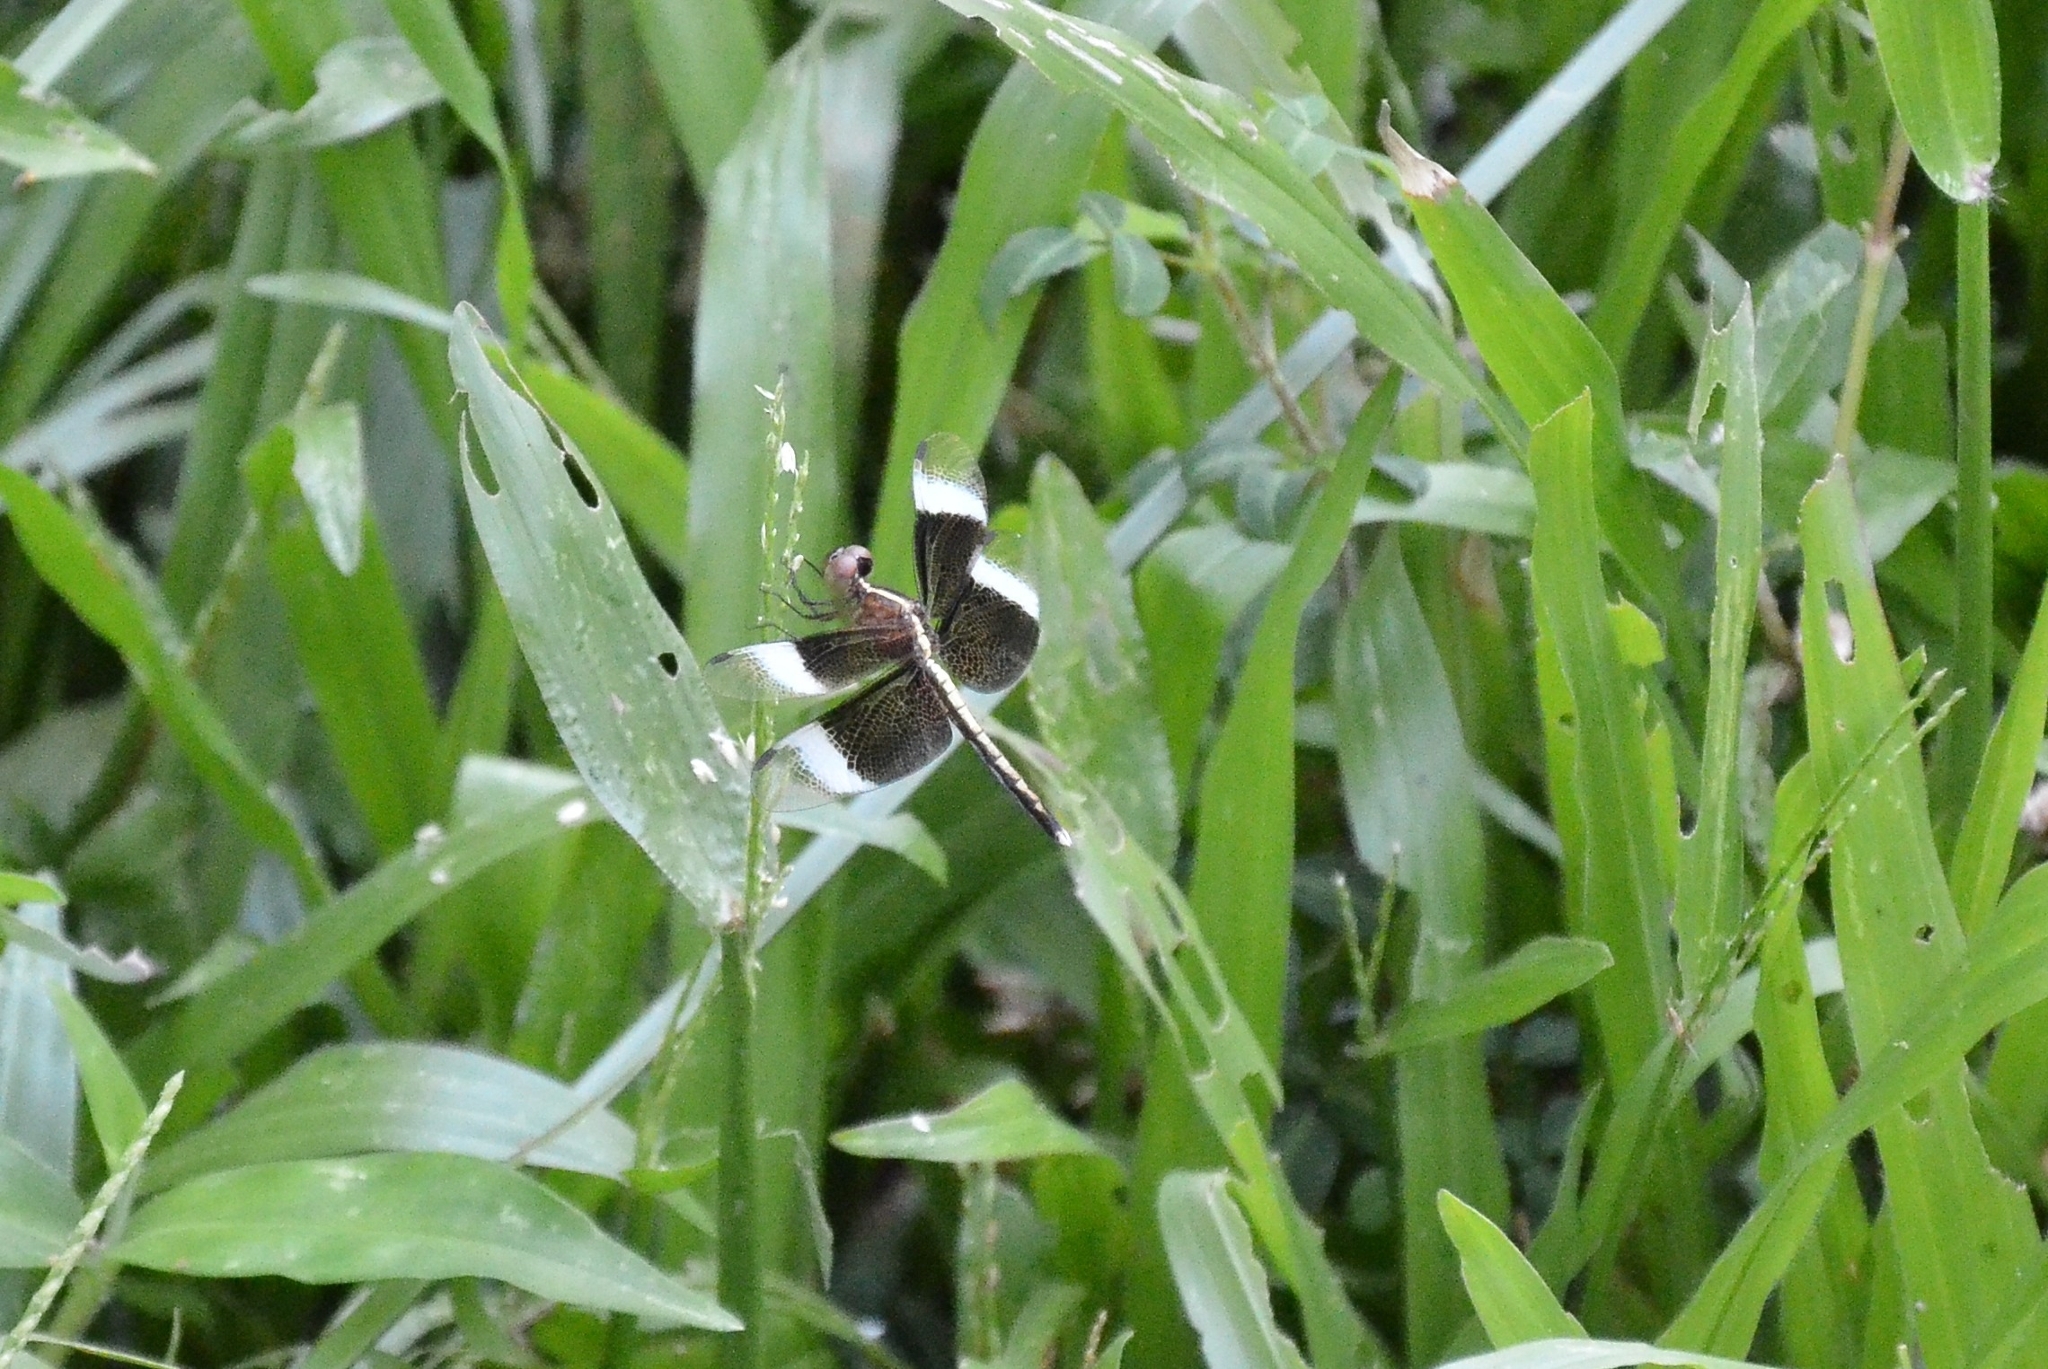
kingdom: Animalia
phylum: Arthropoda
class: Insecta
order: Odonata
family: Libellulidae
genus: Neurothemis
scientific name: Neurothemis tullia
